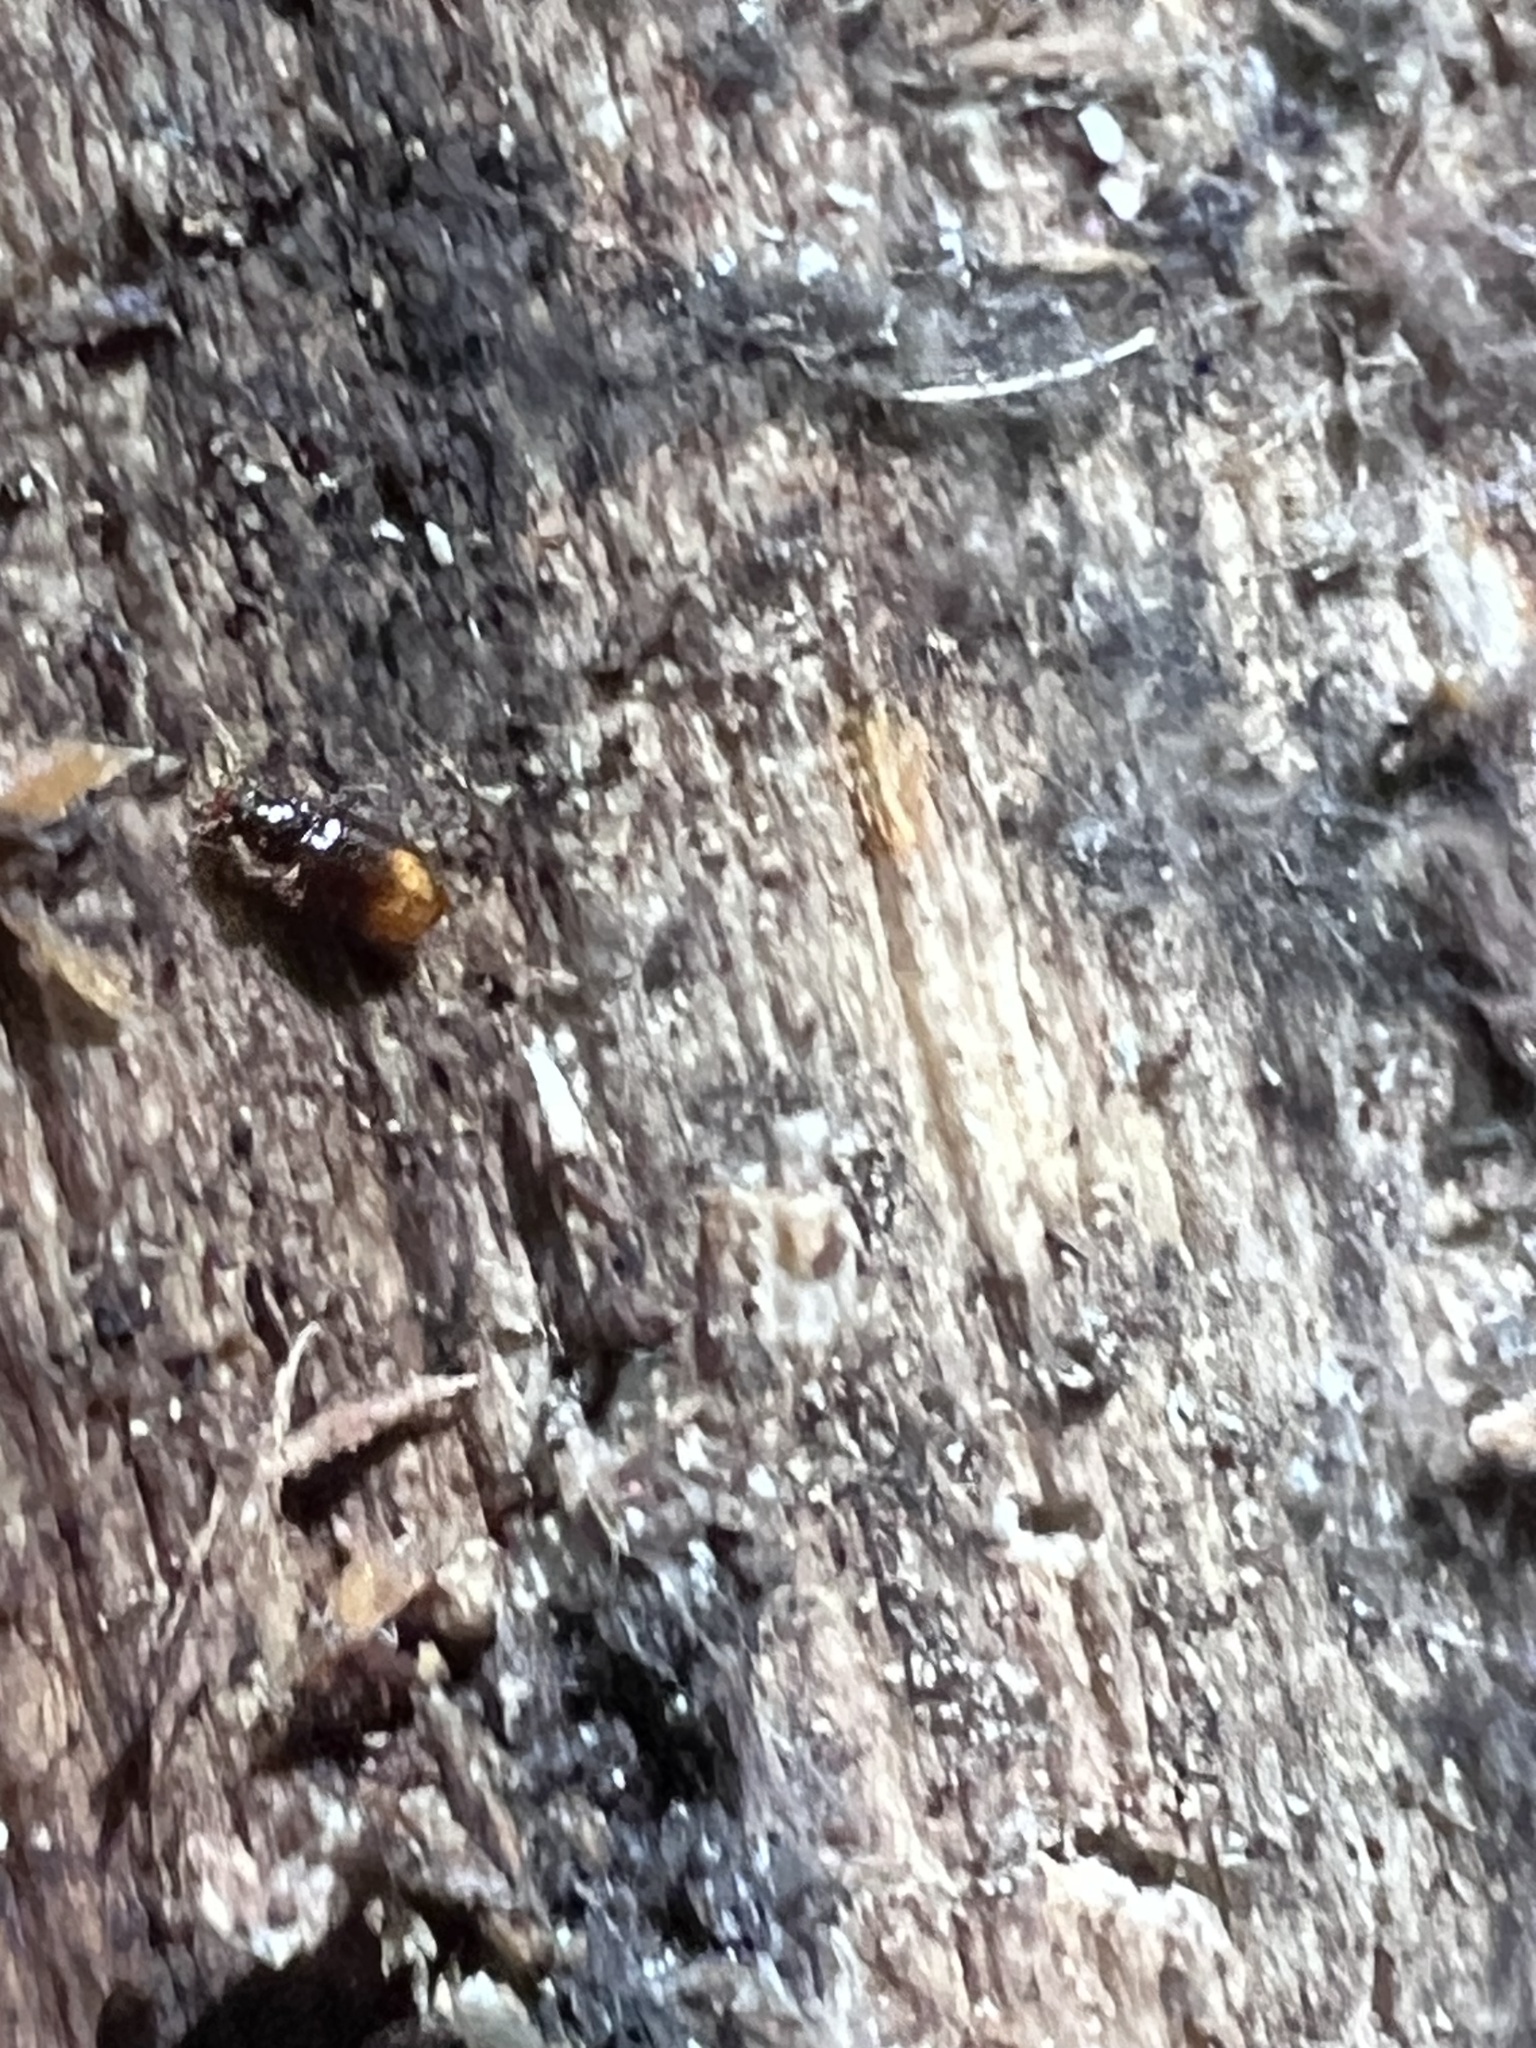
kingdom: Animalia
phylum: Arthropoda
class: Insecta
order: Coleoptera
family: Carabidae
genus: Mioptachys
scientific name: Mioptachys flavicauda
